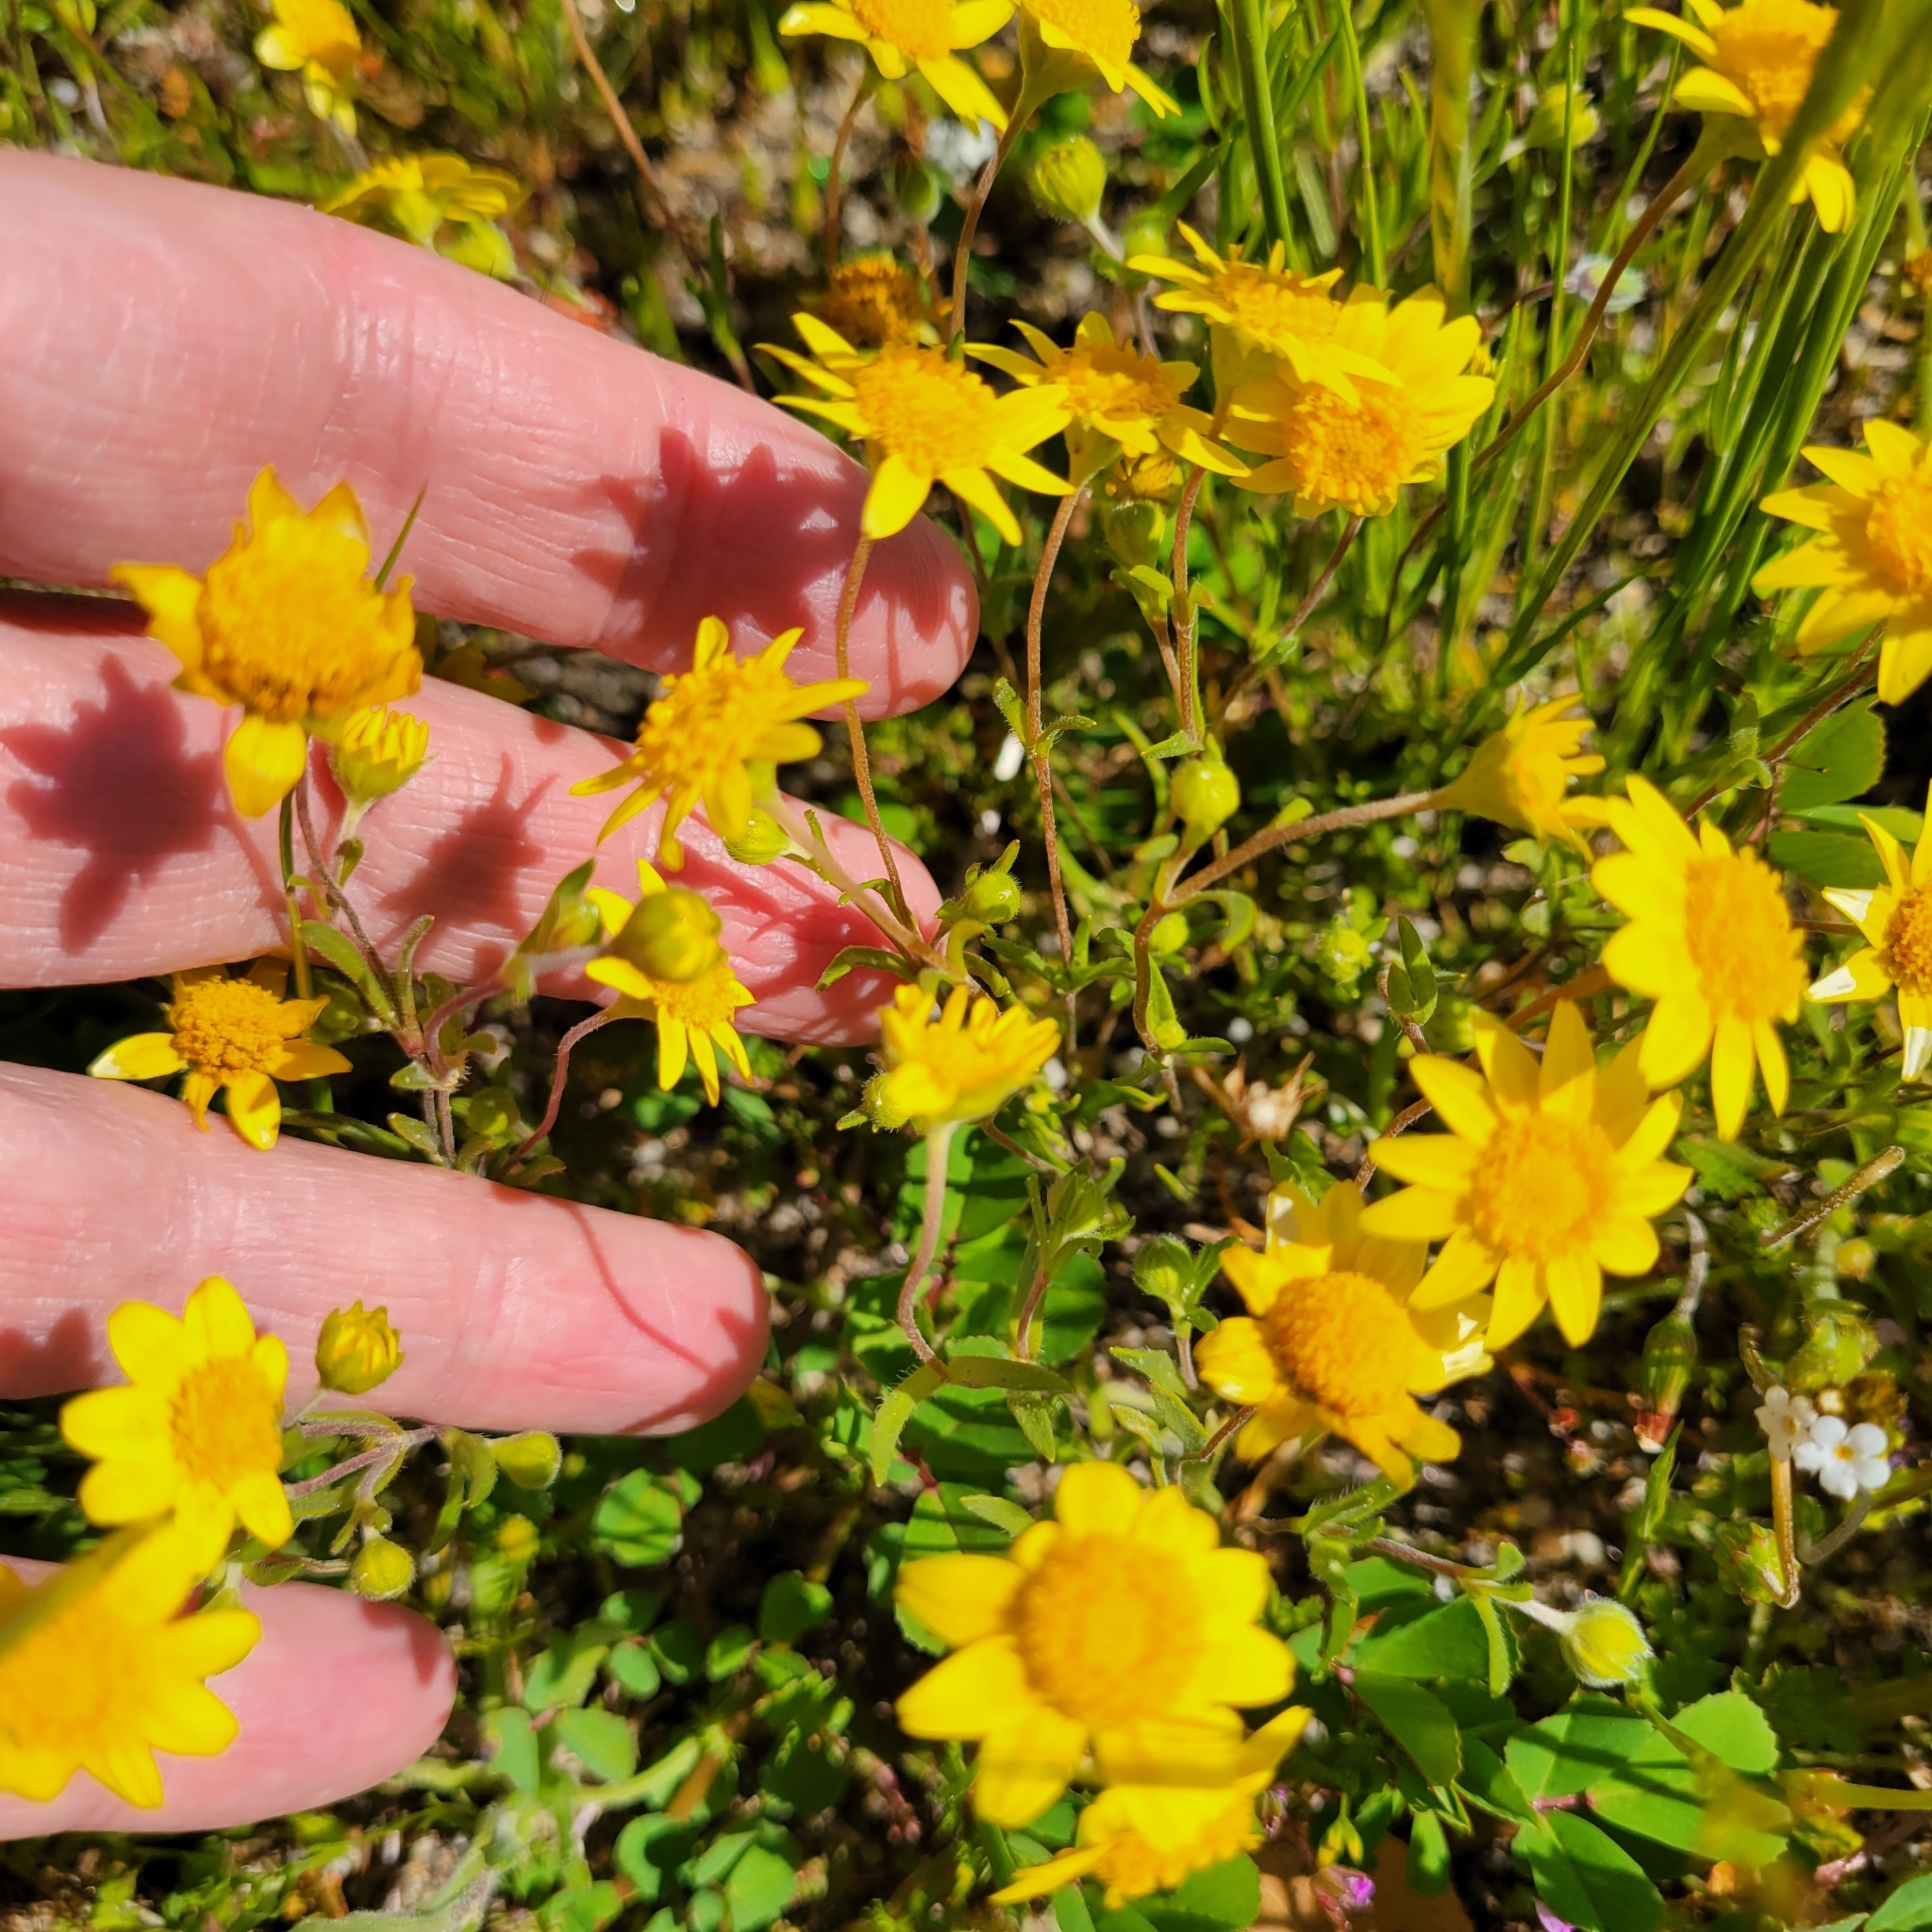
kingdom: Plantae
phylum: Tracheophyta
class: Magnoliopsida
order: Asterales
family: Asteraceae
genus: Lasthenia
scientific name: Lasthenia gracilis
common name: Common goldfields
